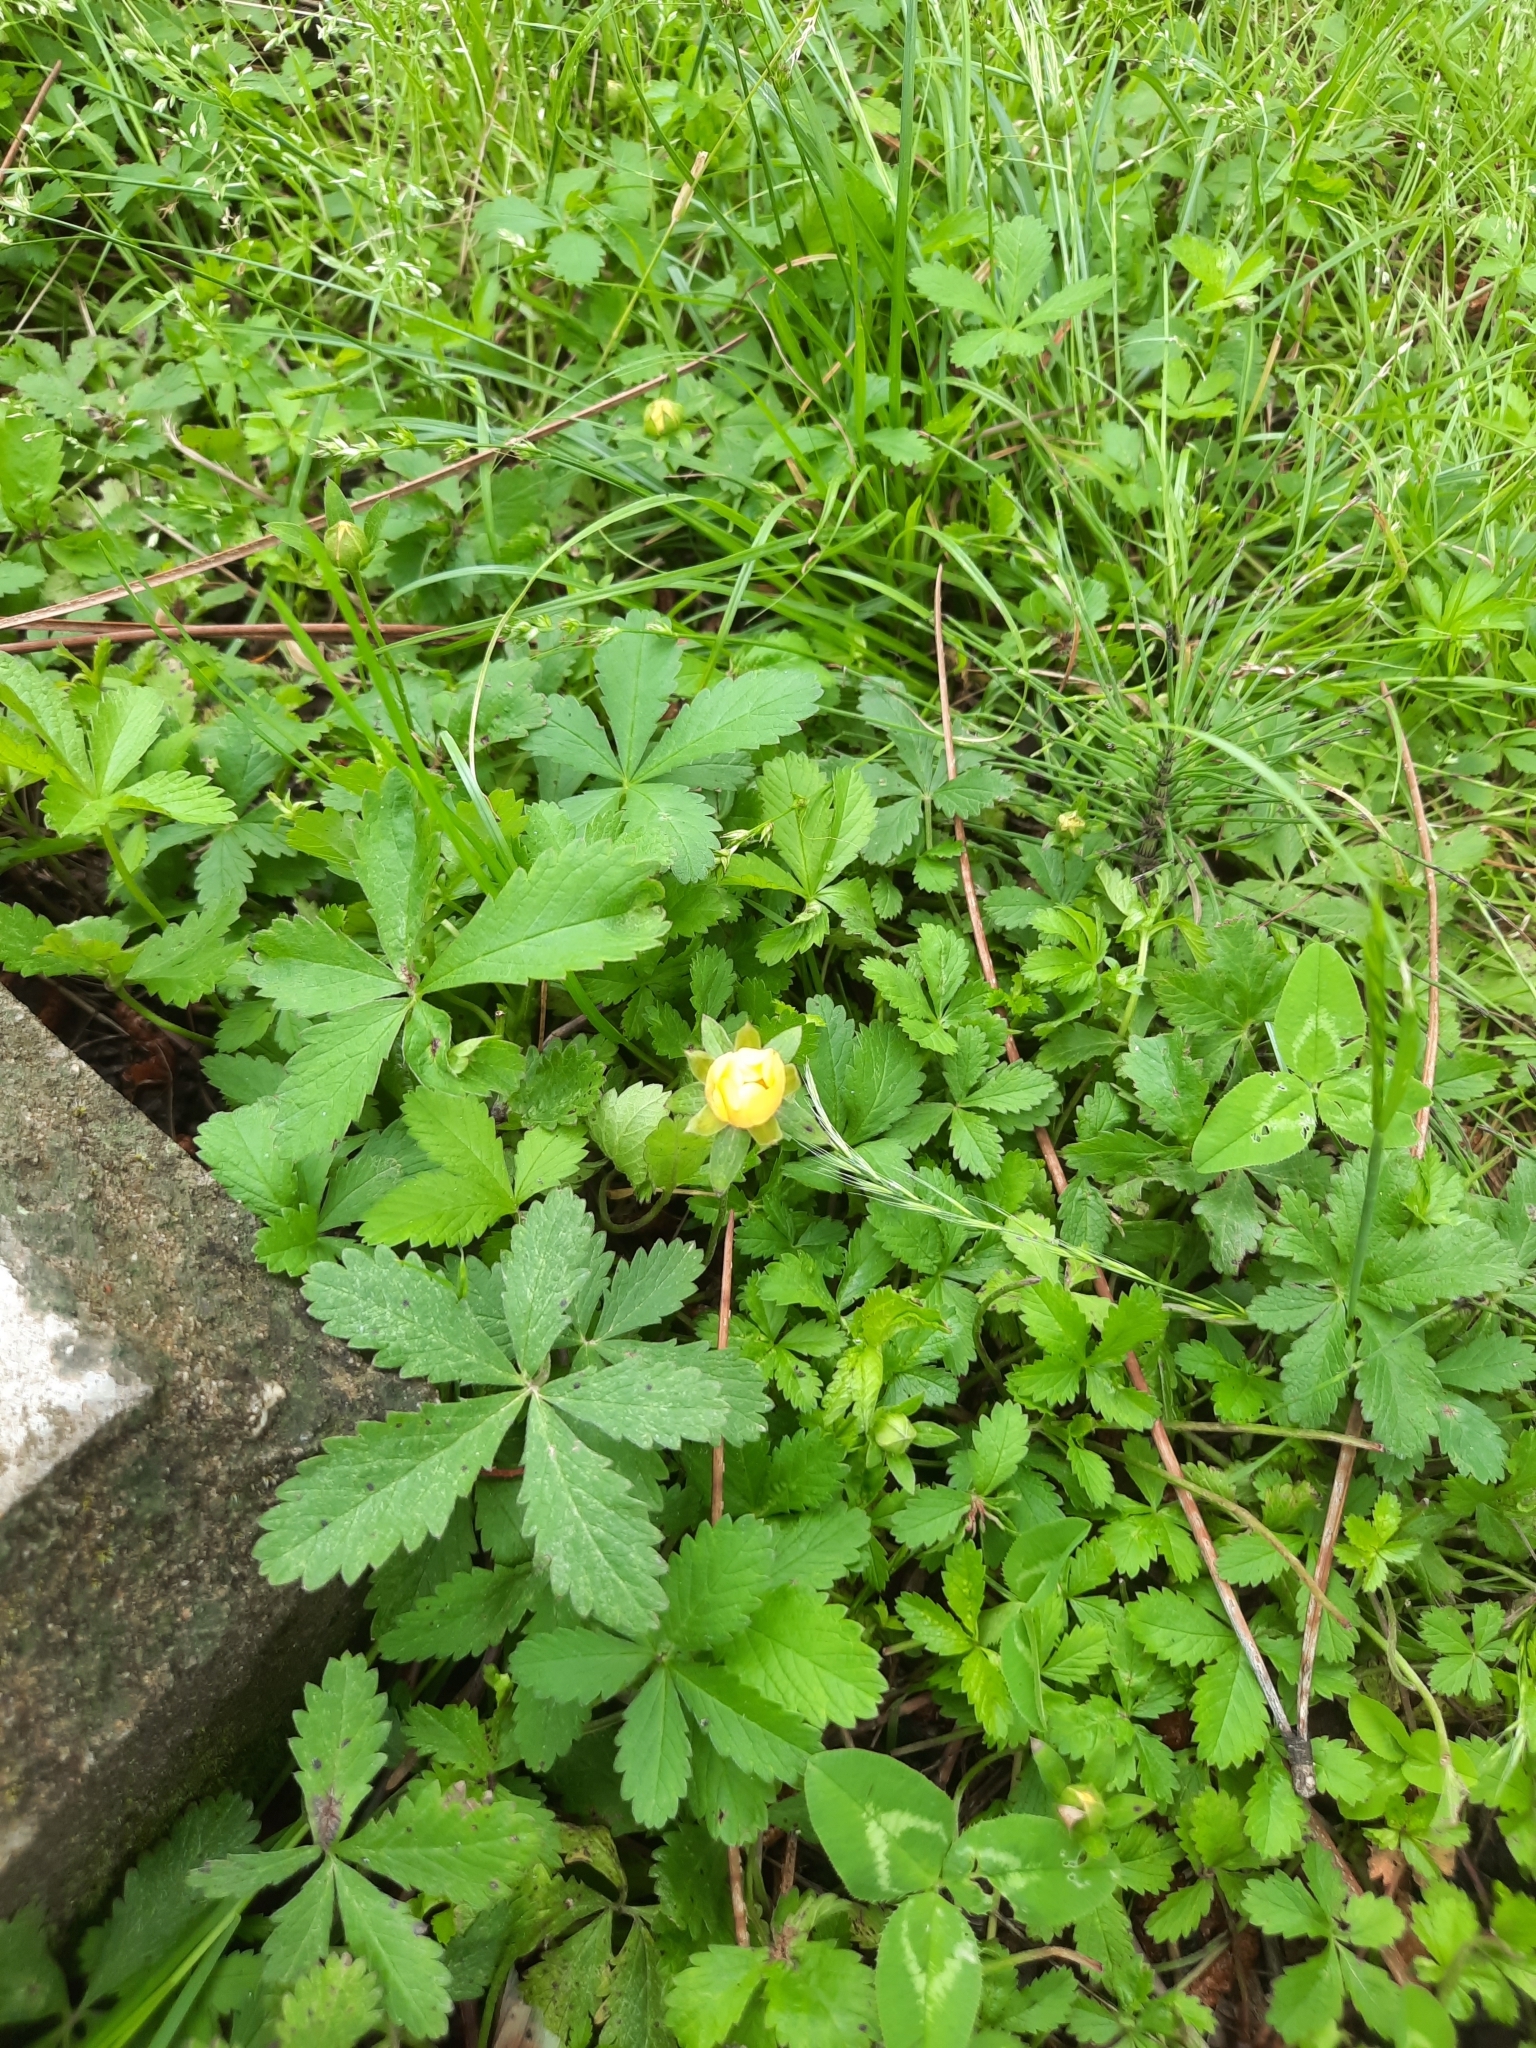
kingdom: Plantae
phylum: Tracheophyta
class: Magnoliopsida
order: Rosales
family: Rosaceae
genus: Potentilla
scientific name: Potentilla reptans
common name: Creeping cinquefoil
